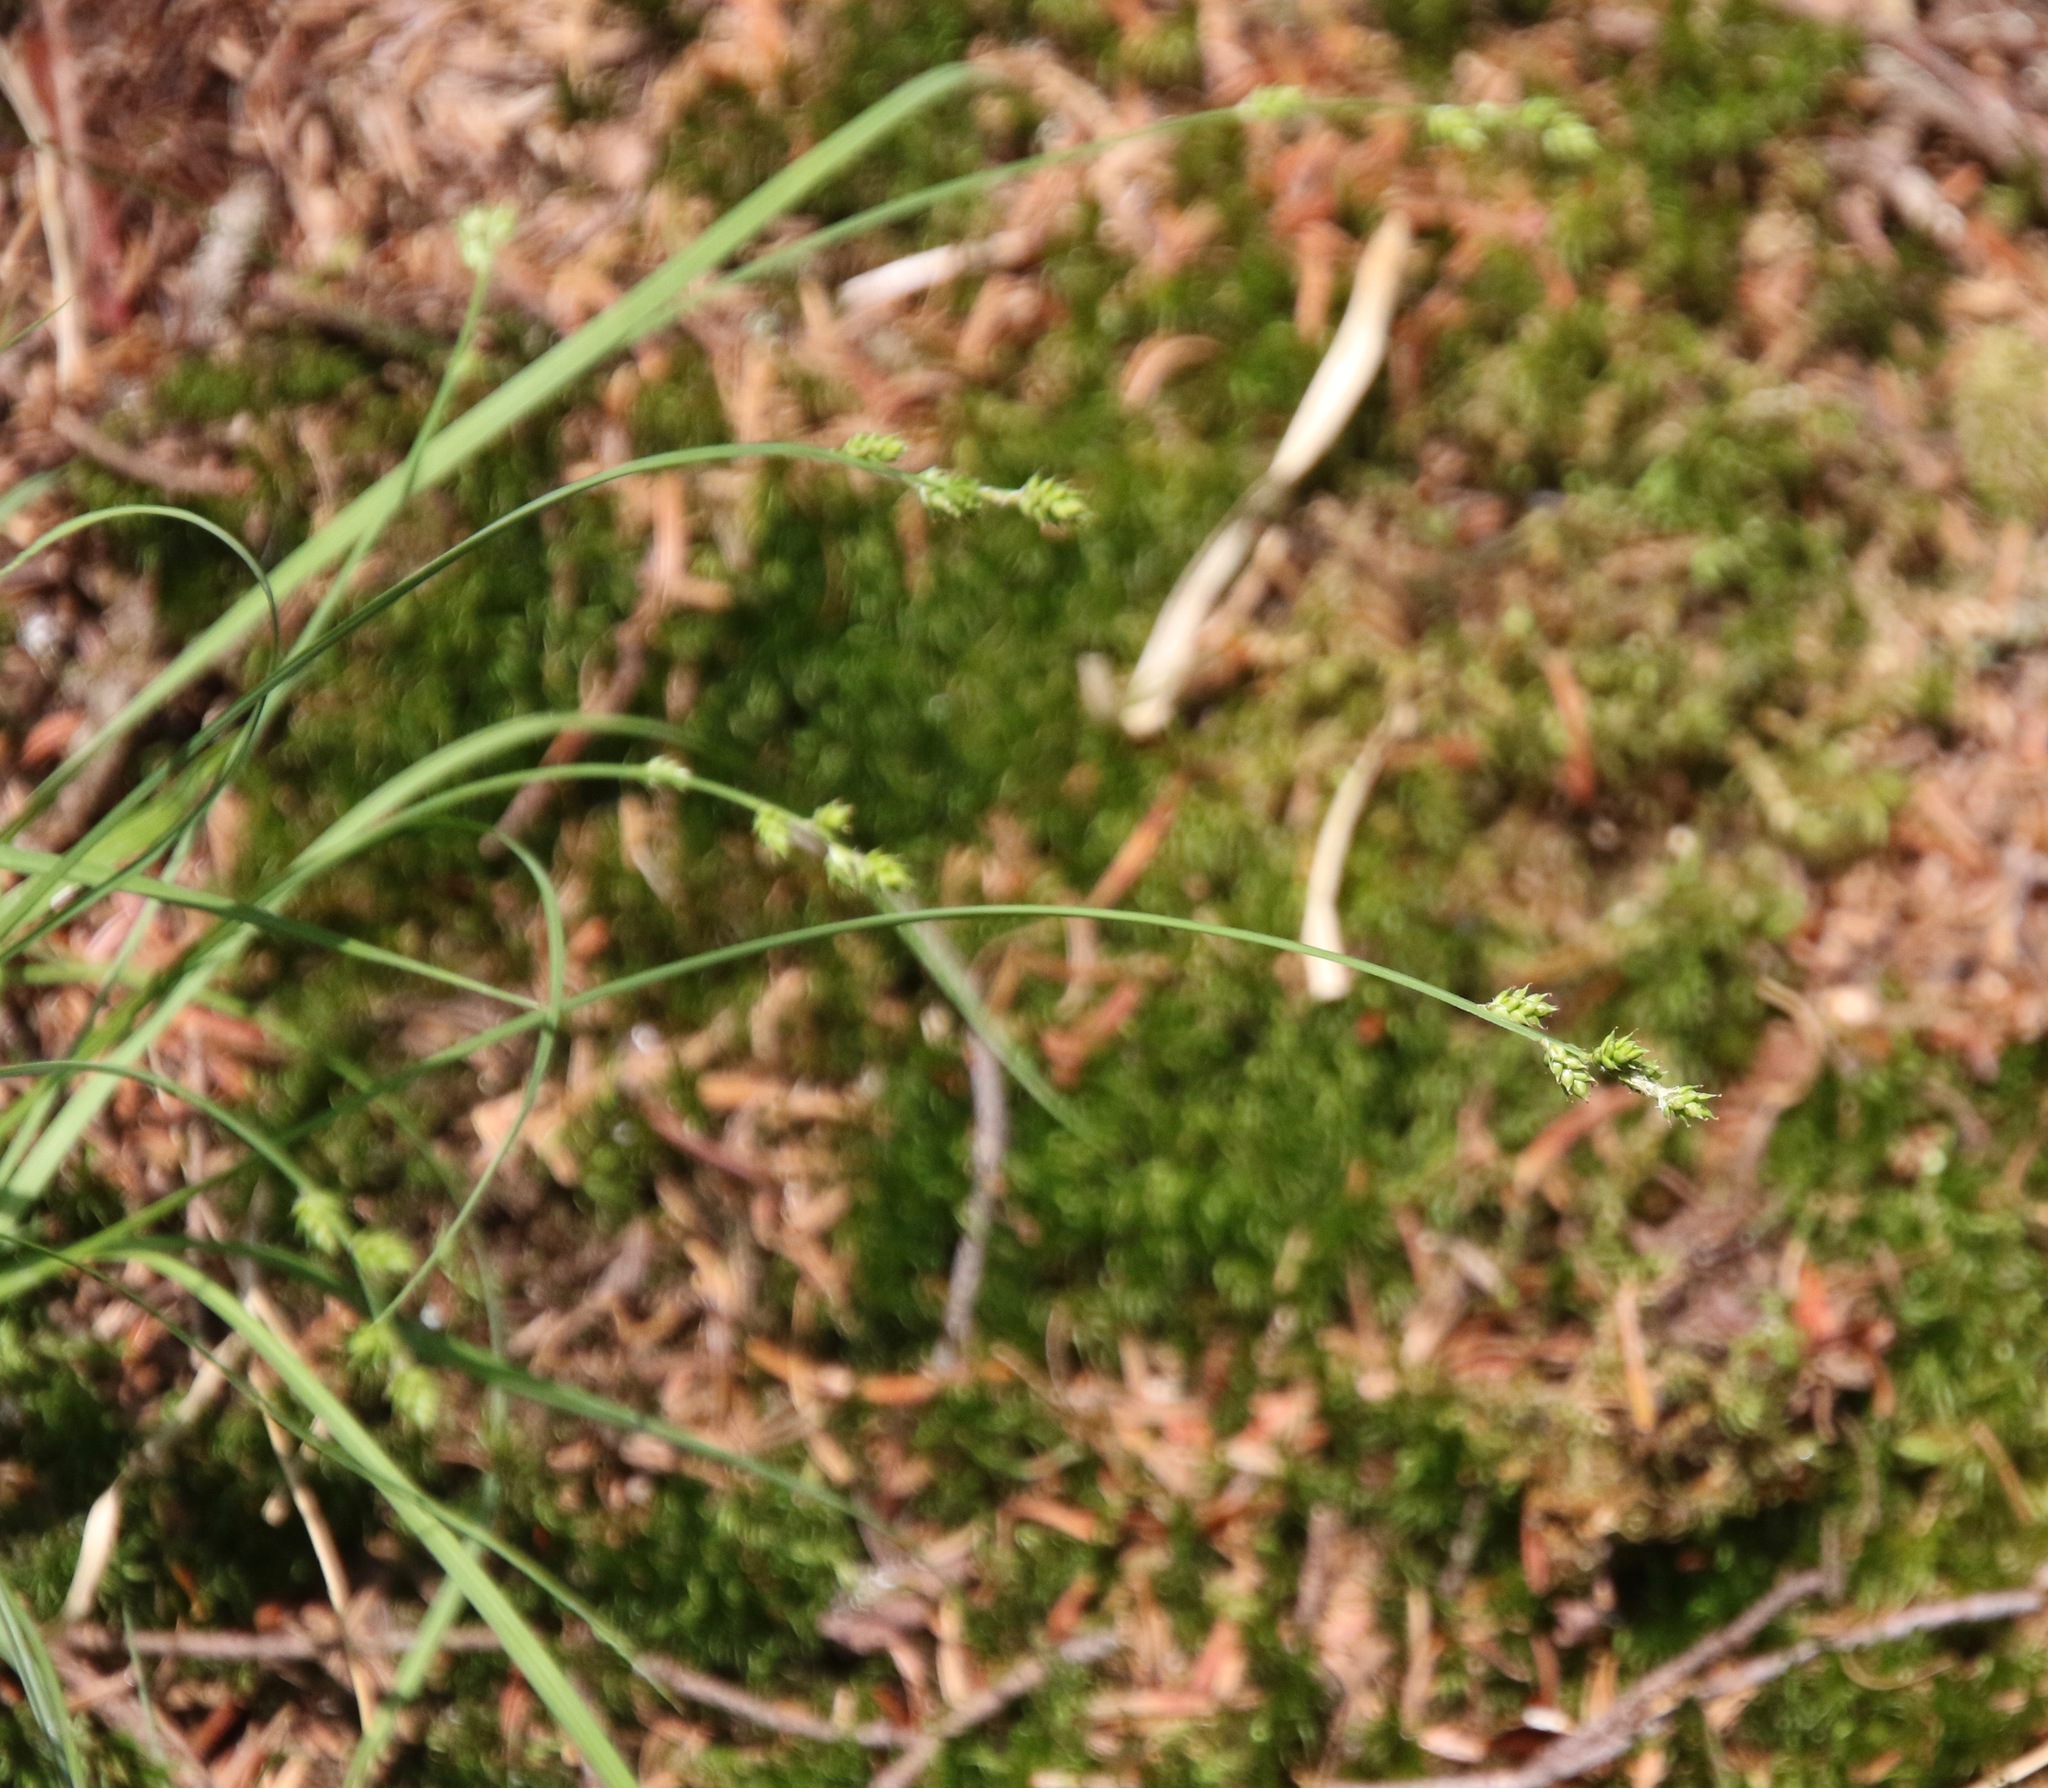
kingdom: Plantae
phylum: Tracheophyta
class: Liliopsida
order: Poales
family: Cyperaceae
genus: Carex
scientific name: Carex brunnescens
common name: Brown sedge
